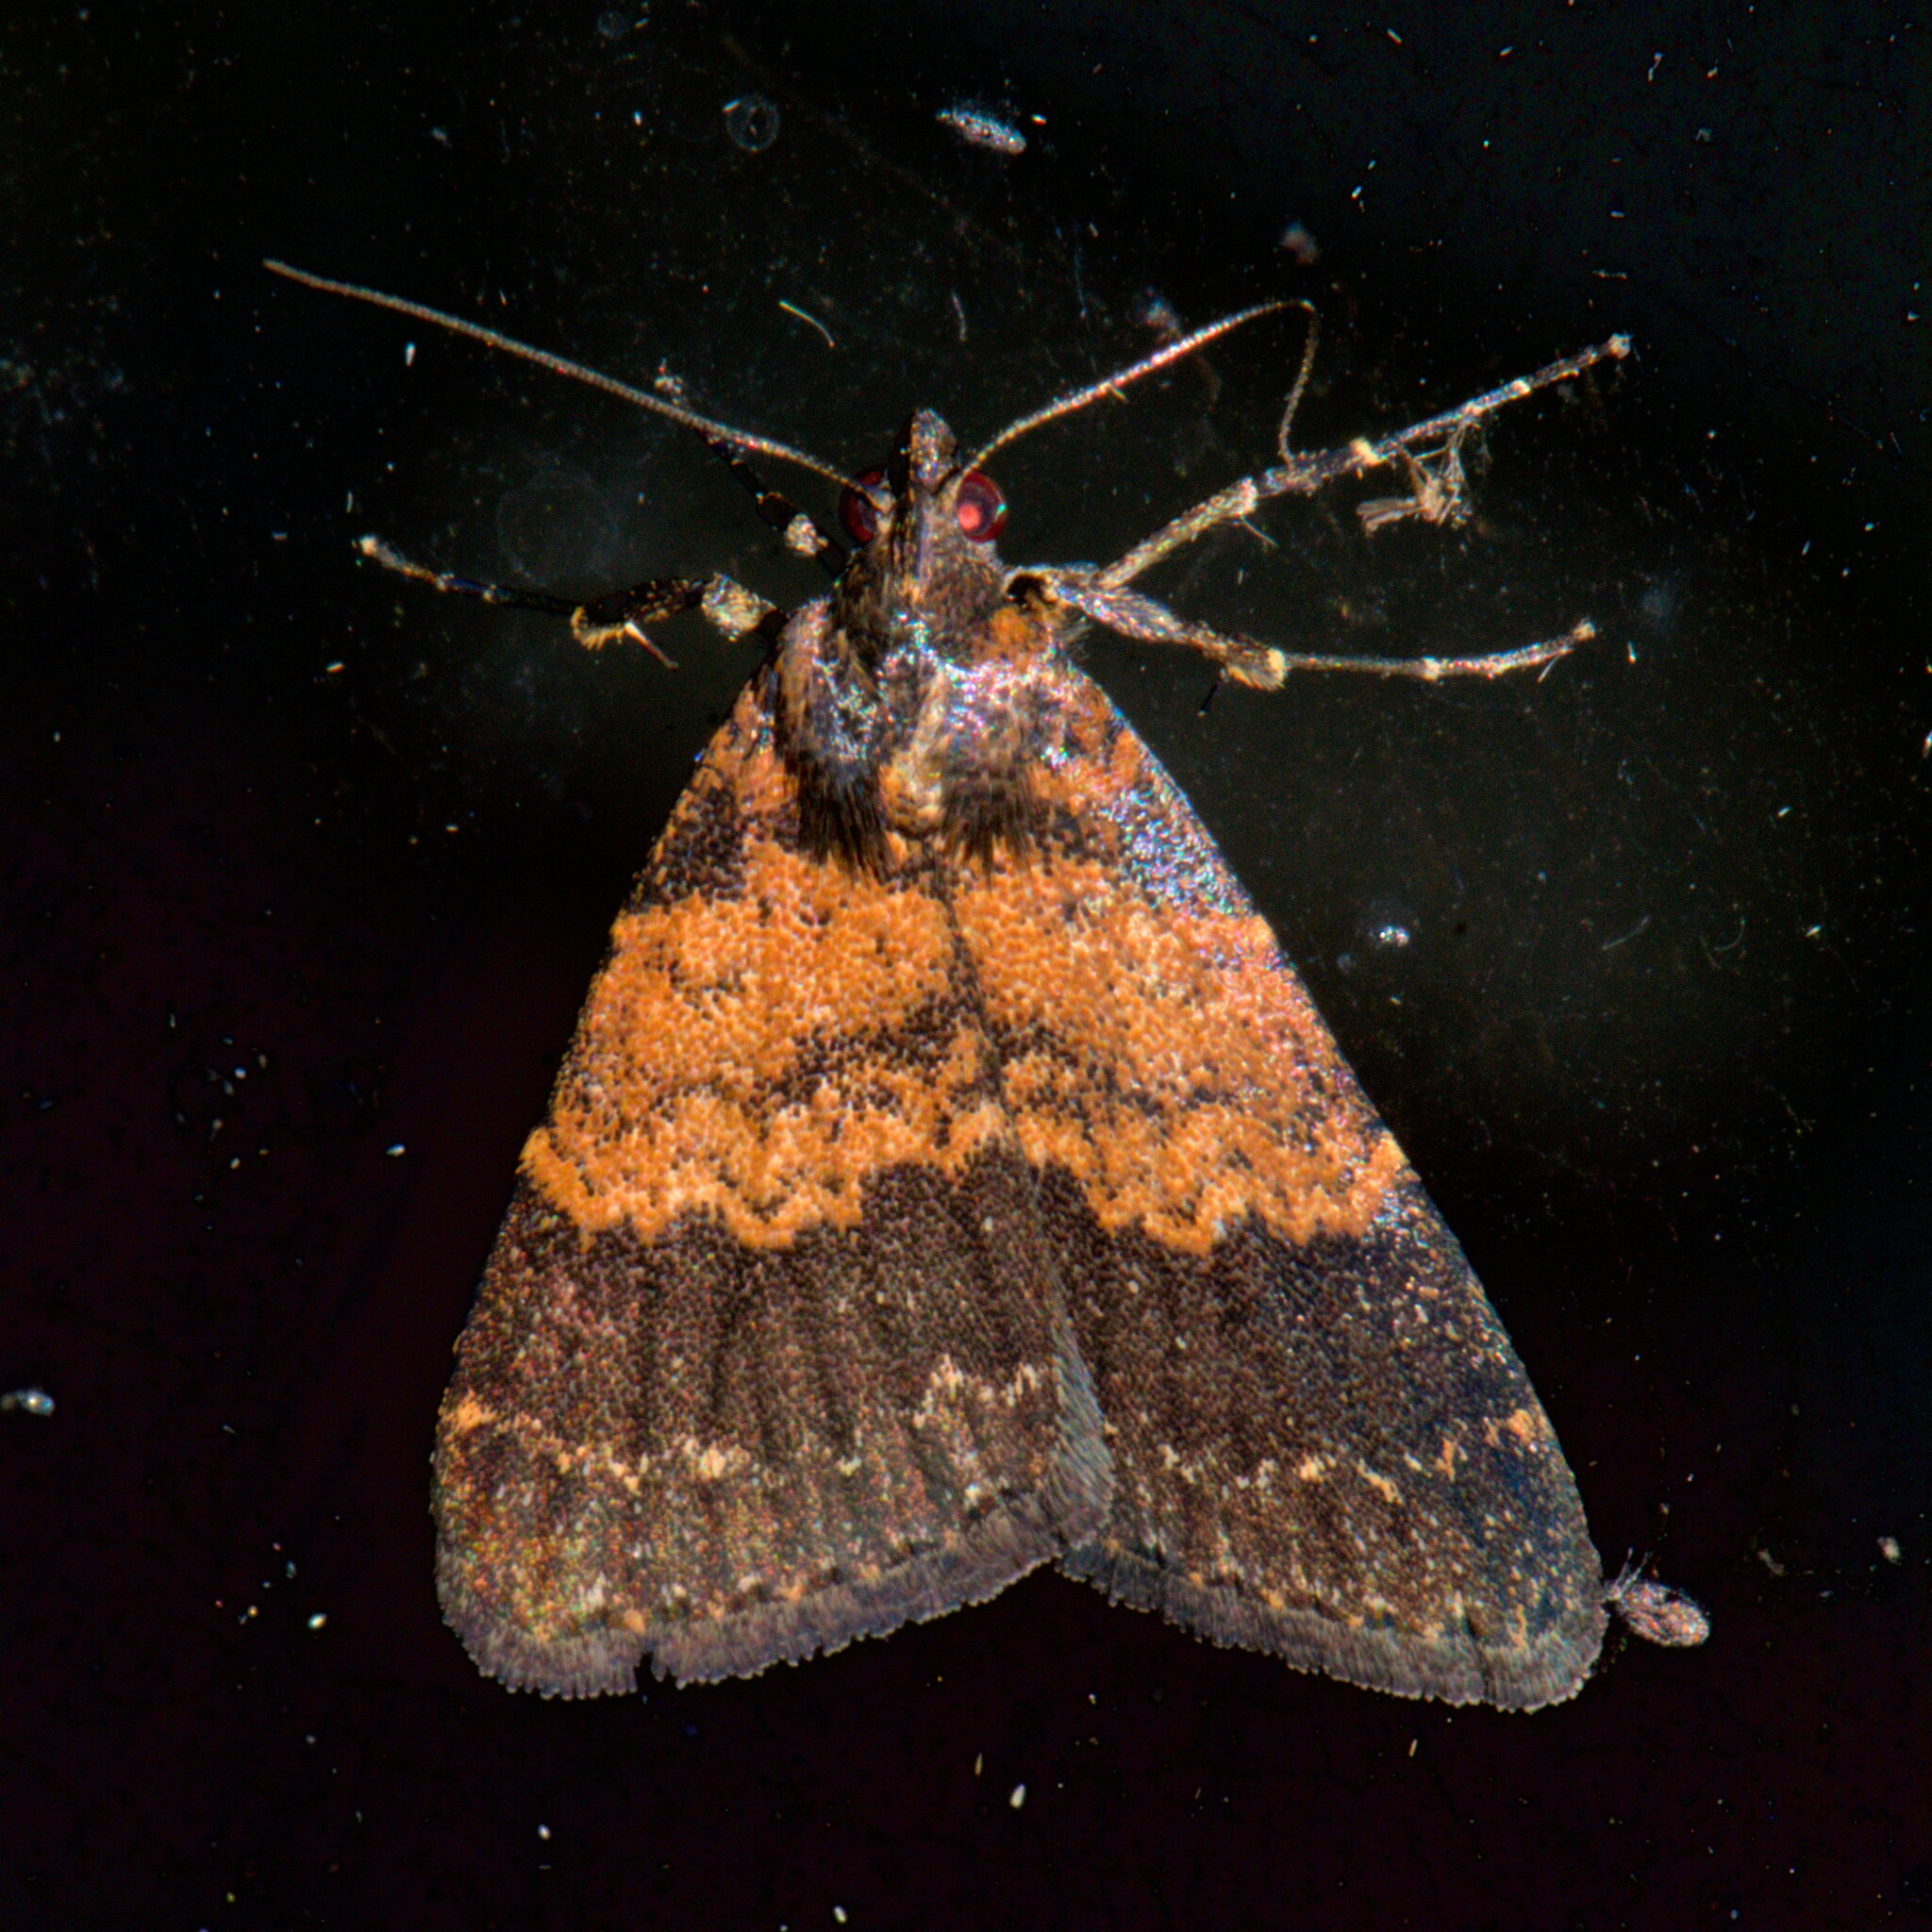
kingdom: Animalia
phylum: Arthropoda
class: Insecta
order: Lepidoptera
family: Erebidae
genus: Hydrillodes
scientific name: Hydrillodes lentalis
